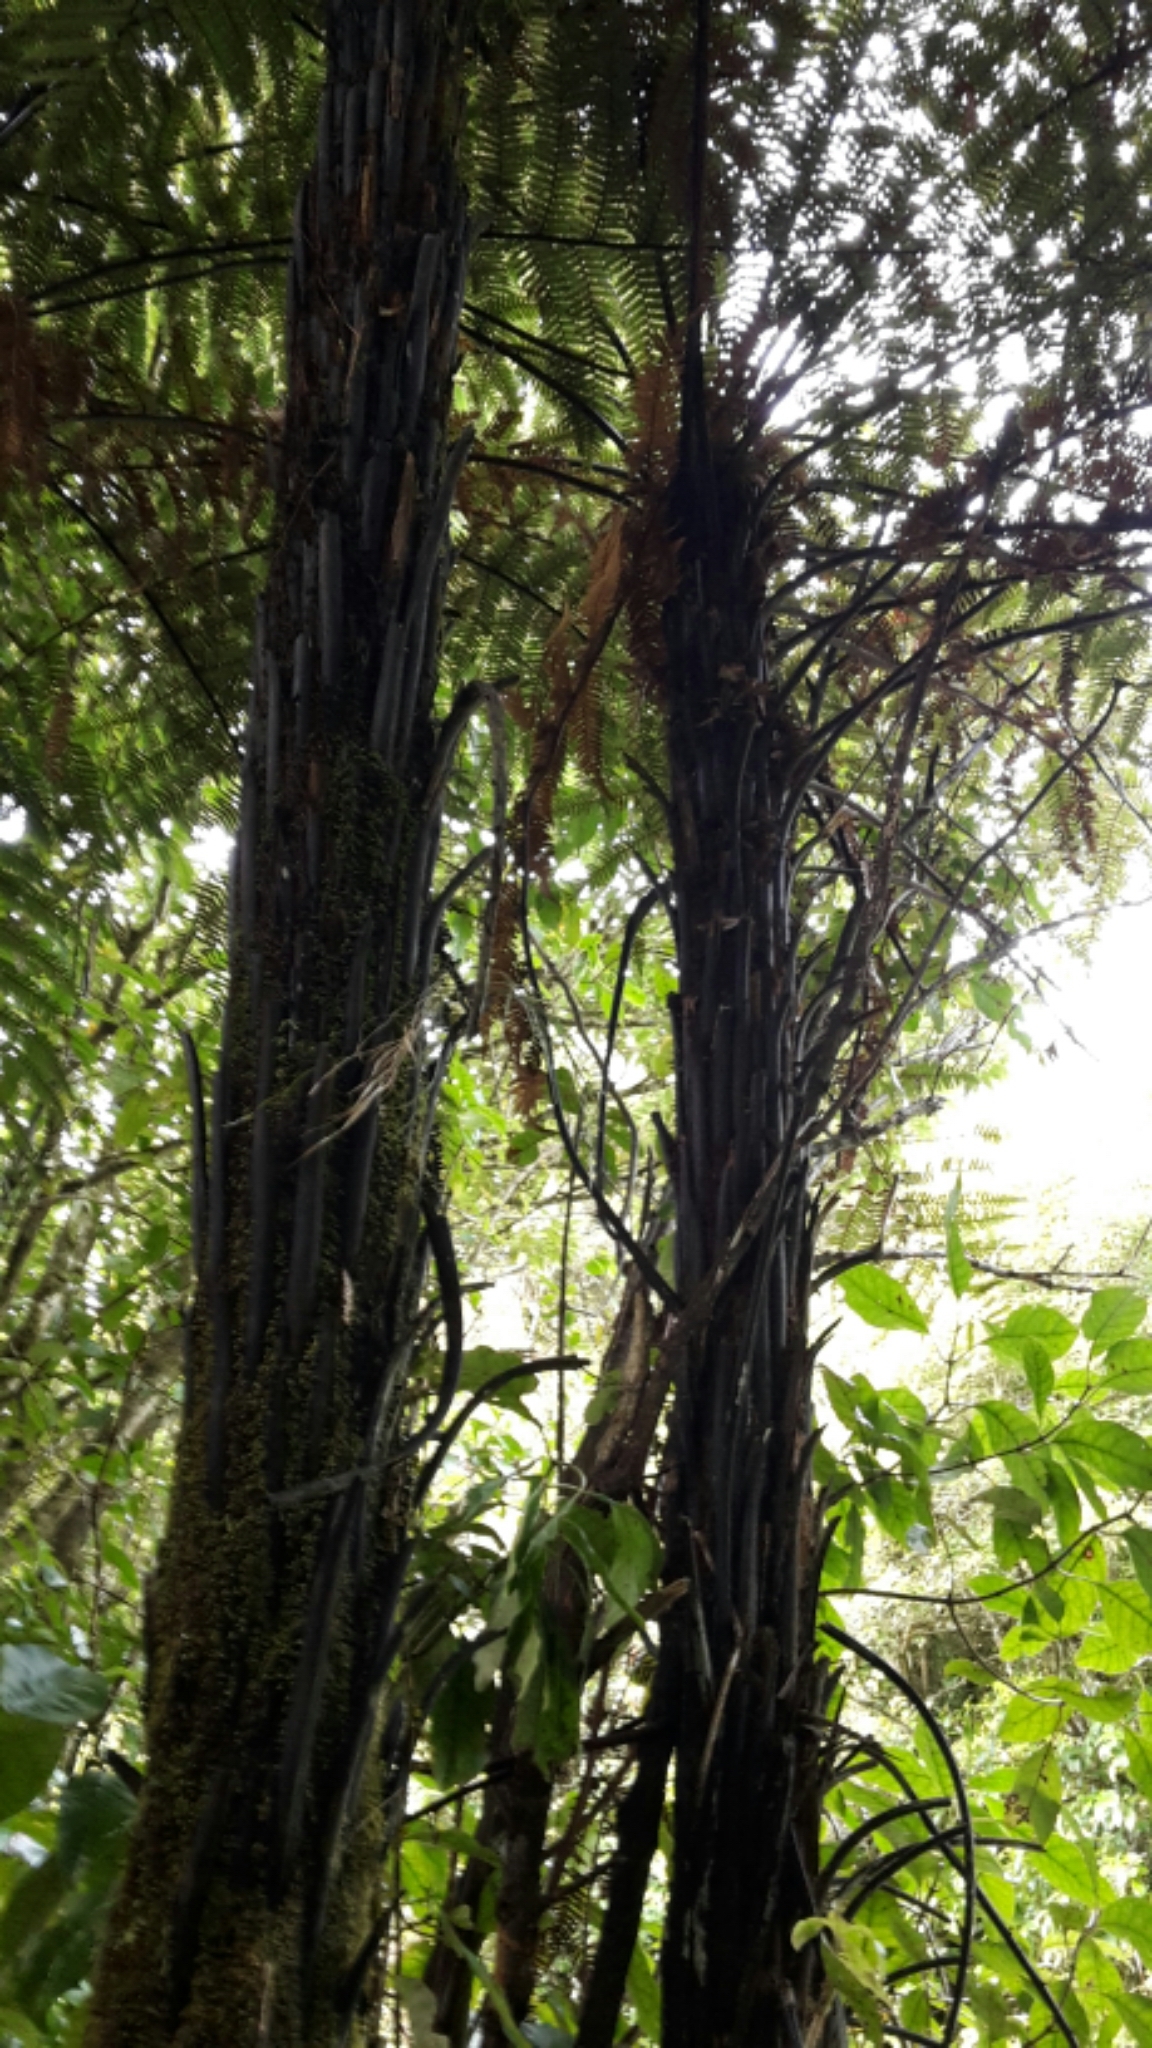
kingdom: Plantae
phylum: Tracheophyta
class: Polypodiopsida
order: Cyatheales
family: Dicksoniaceae
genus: Dicksonia
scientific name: Dicksonia squarrosa
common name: Hard treefern
